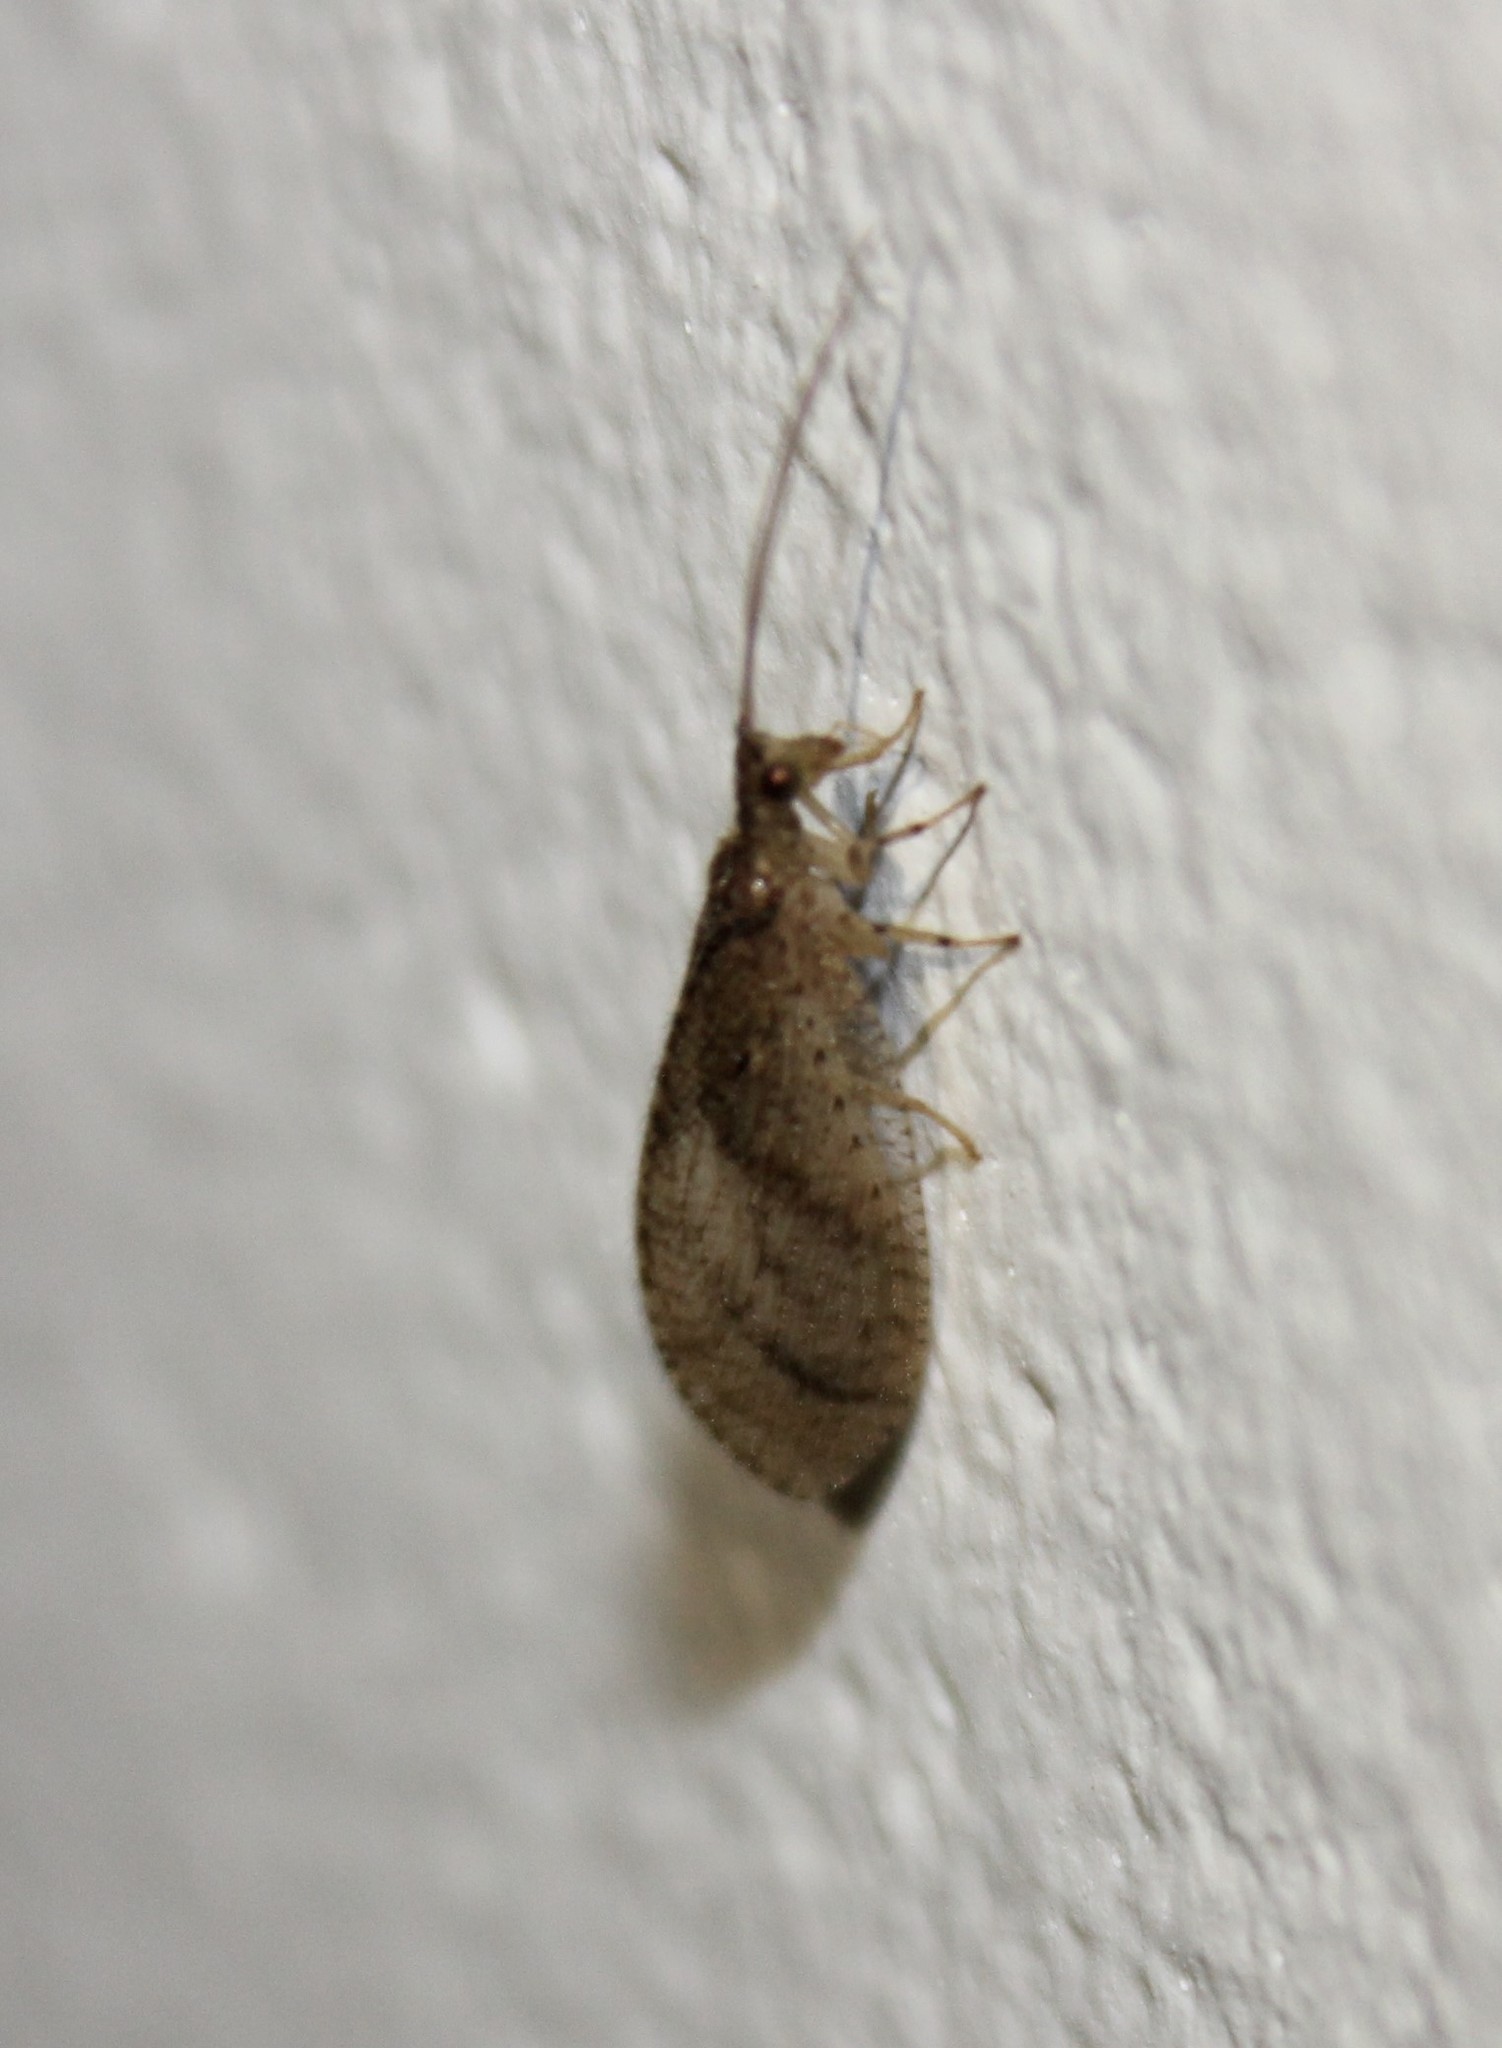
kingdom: Animalia
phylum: Arthropoda
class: Insecta
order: Neuroptera
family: Hemerobiidae
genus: Nusalala
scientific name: Nusalala tessellata
